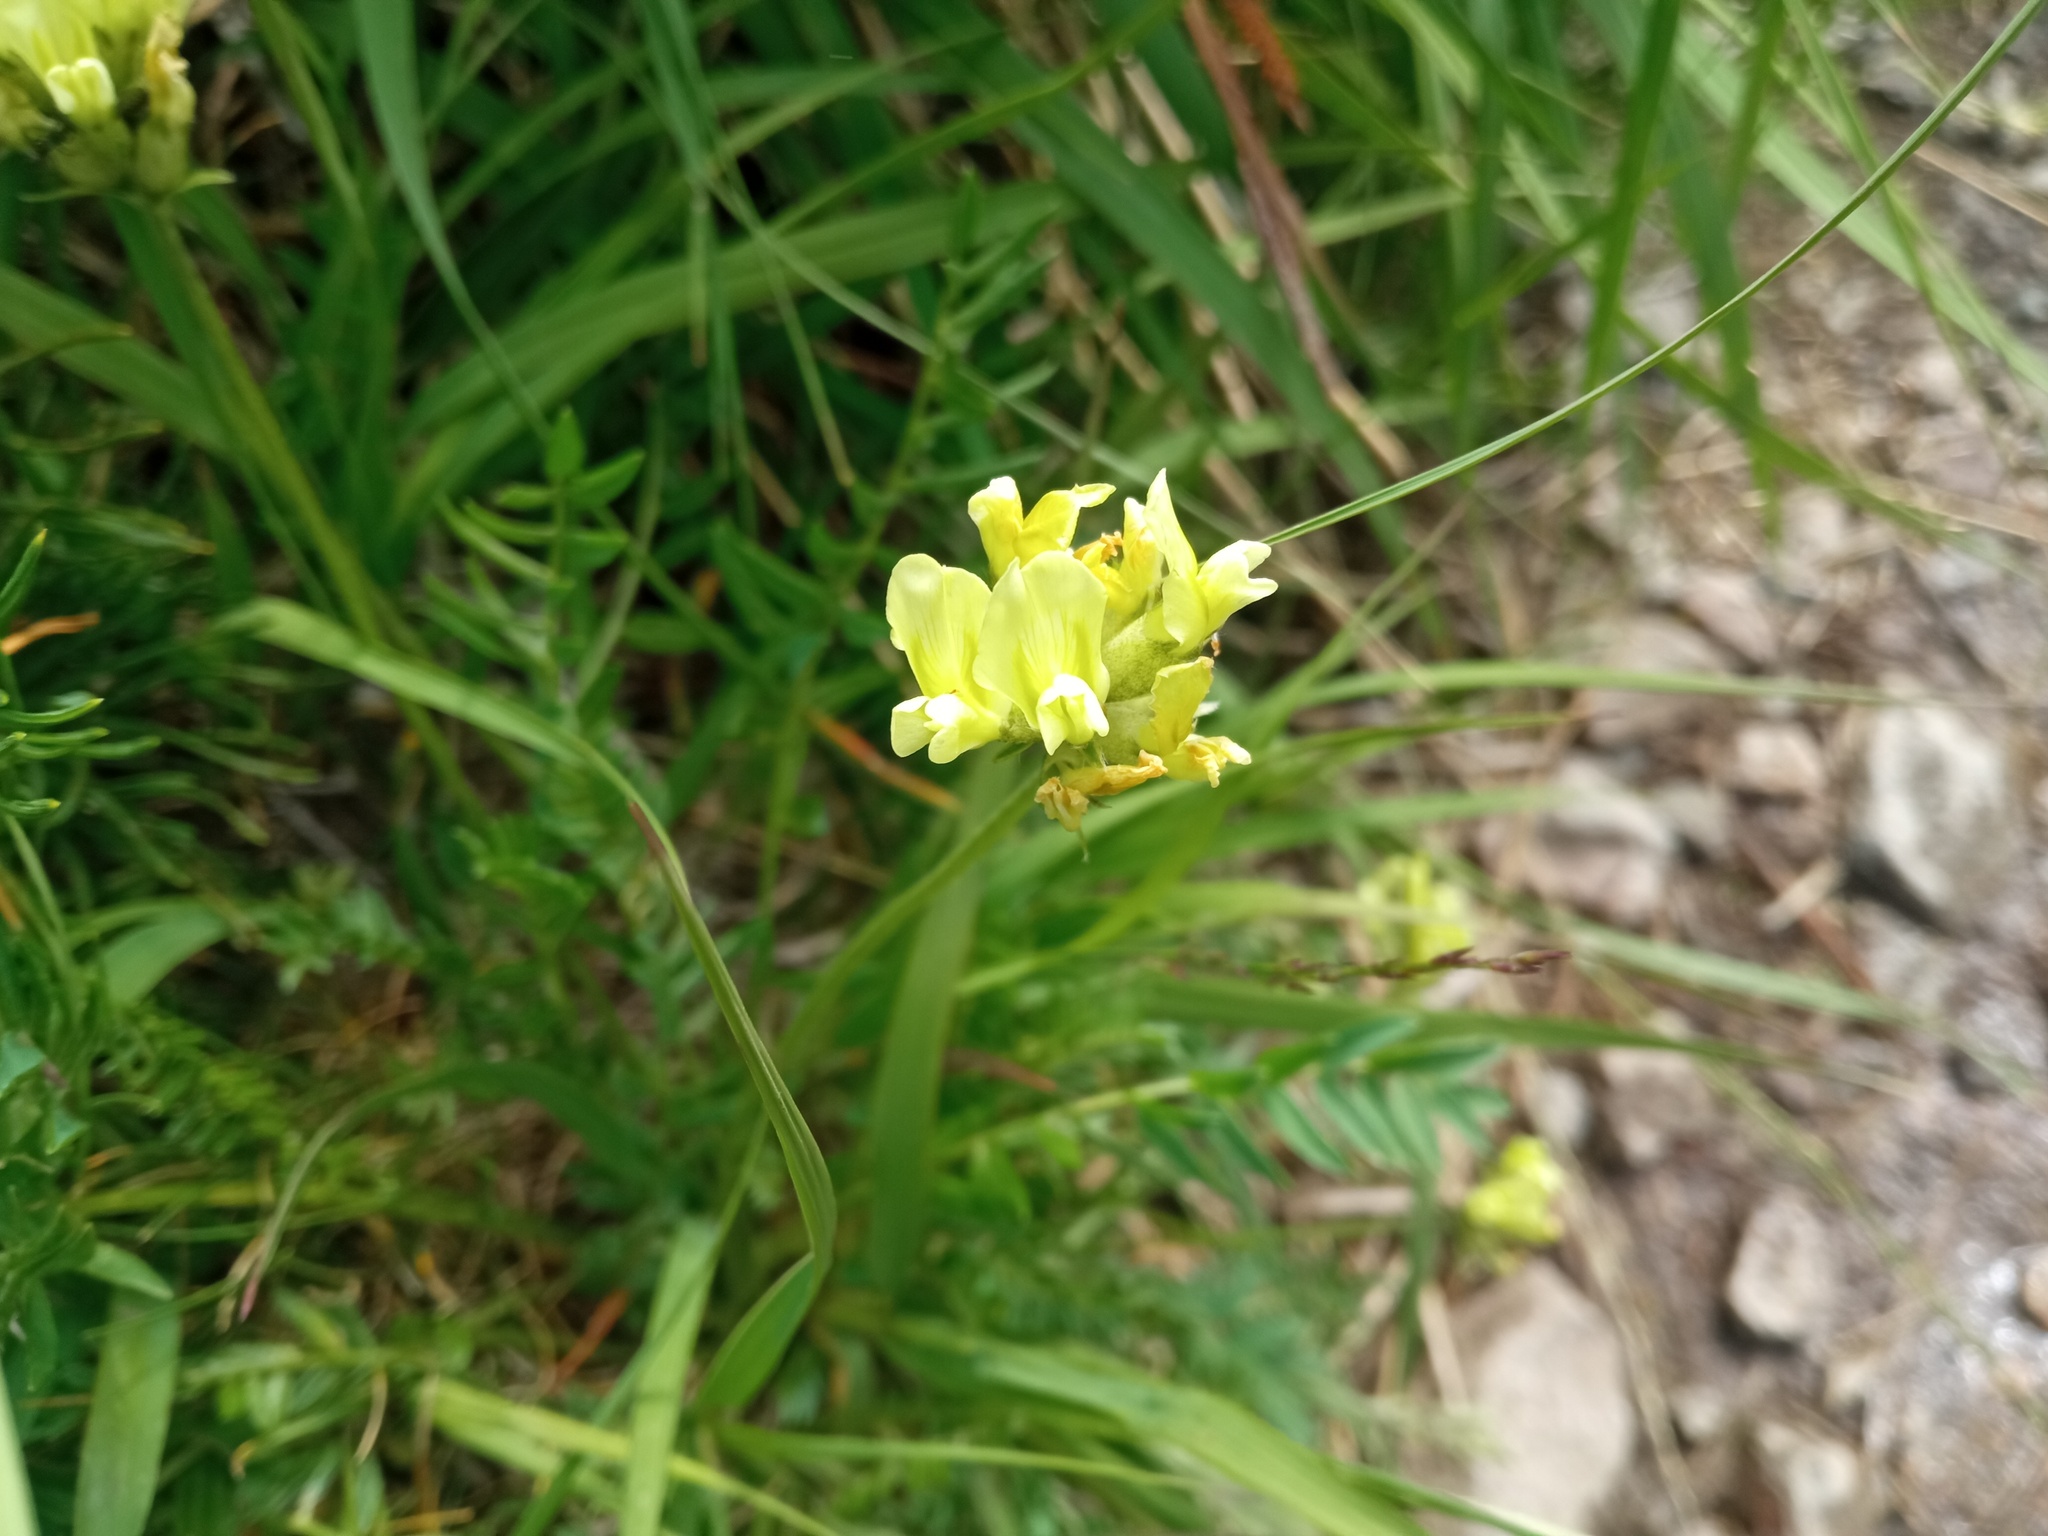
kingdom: Plantae
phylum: Tracheophyta
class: Magnoliopsida
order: Fabales
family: Fabaceae
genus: Oxytropis
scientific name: Oxytropis campestris
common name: Field locoweed
